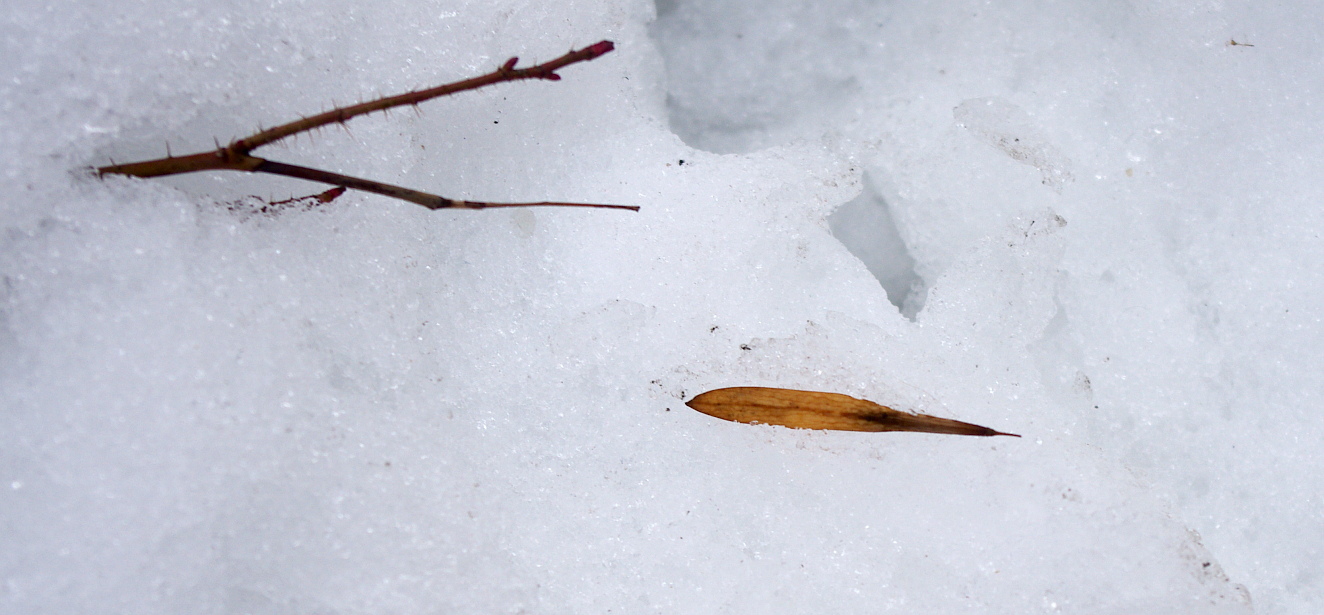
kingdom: Plantae
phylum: Tracheophyta
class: Magnoliopsida
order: Lamiales
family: Oleaceae
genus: Fraxinus
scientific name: Fraxinus pennsylvanica
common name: Green ash
